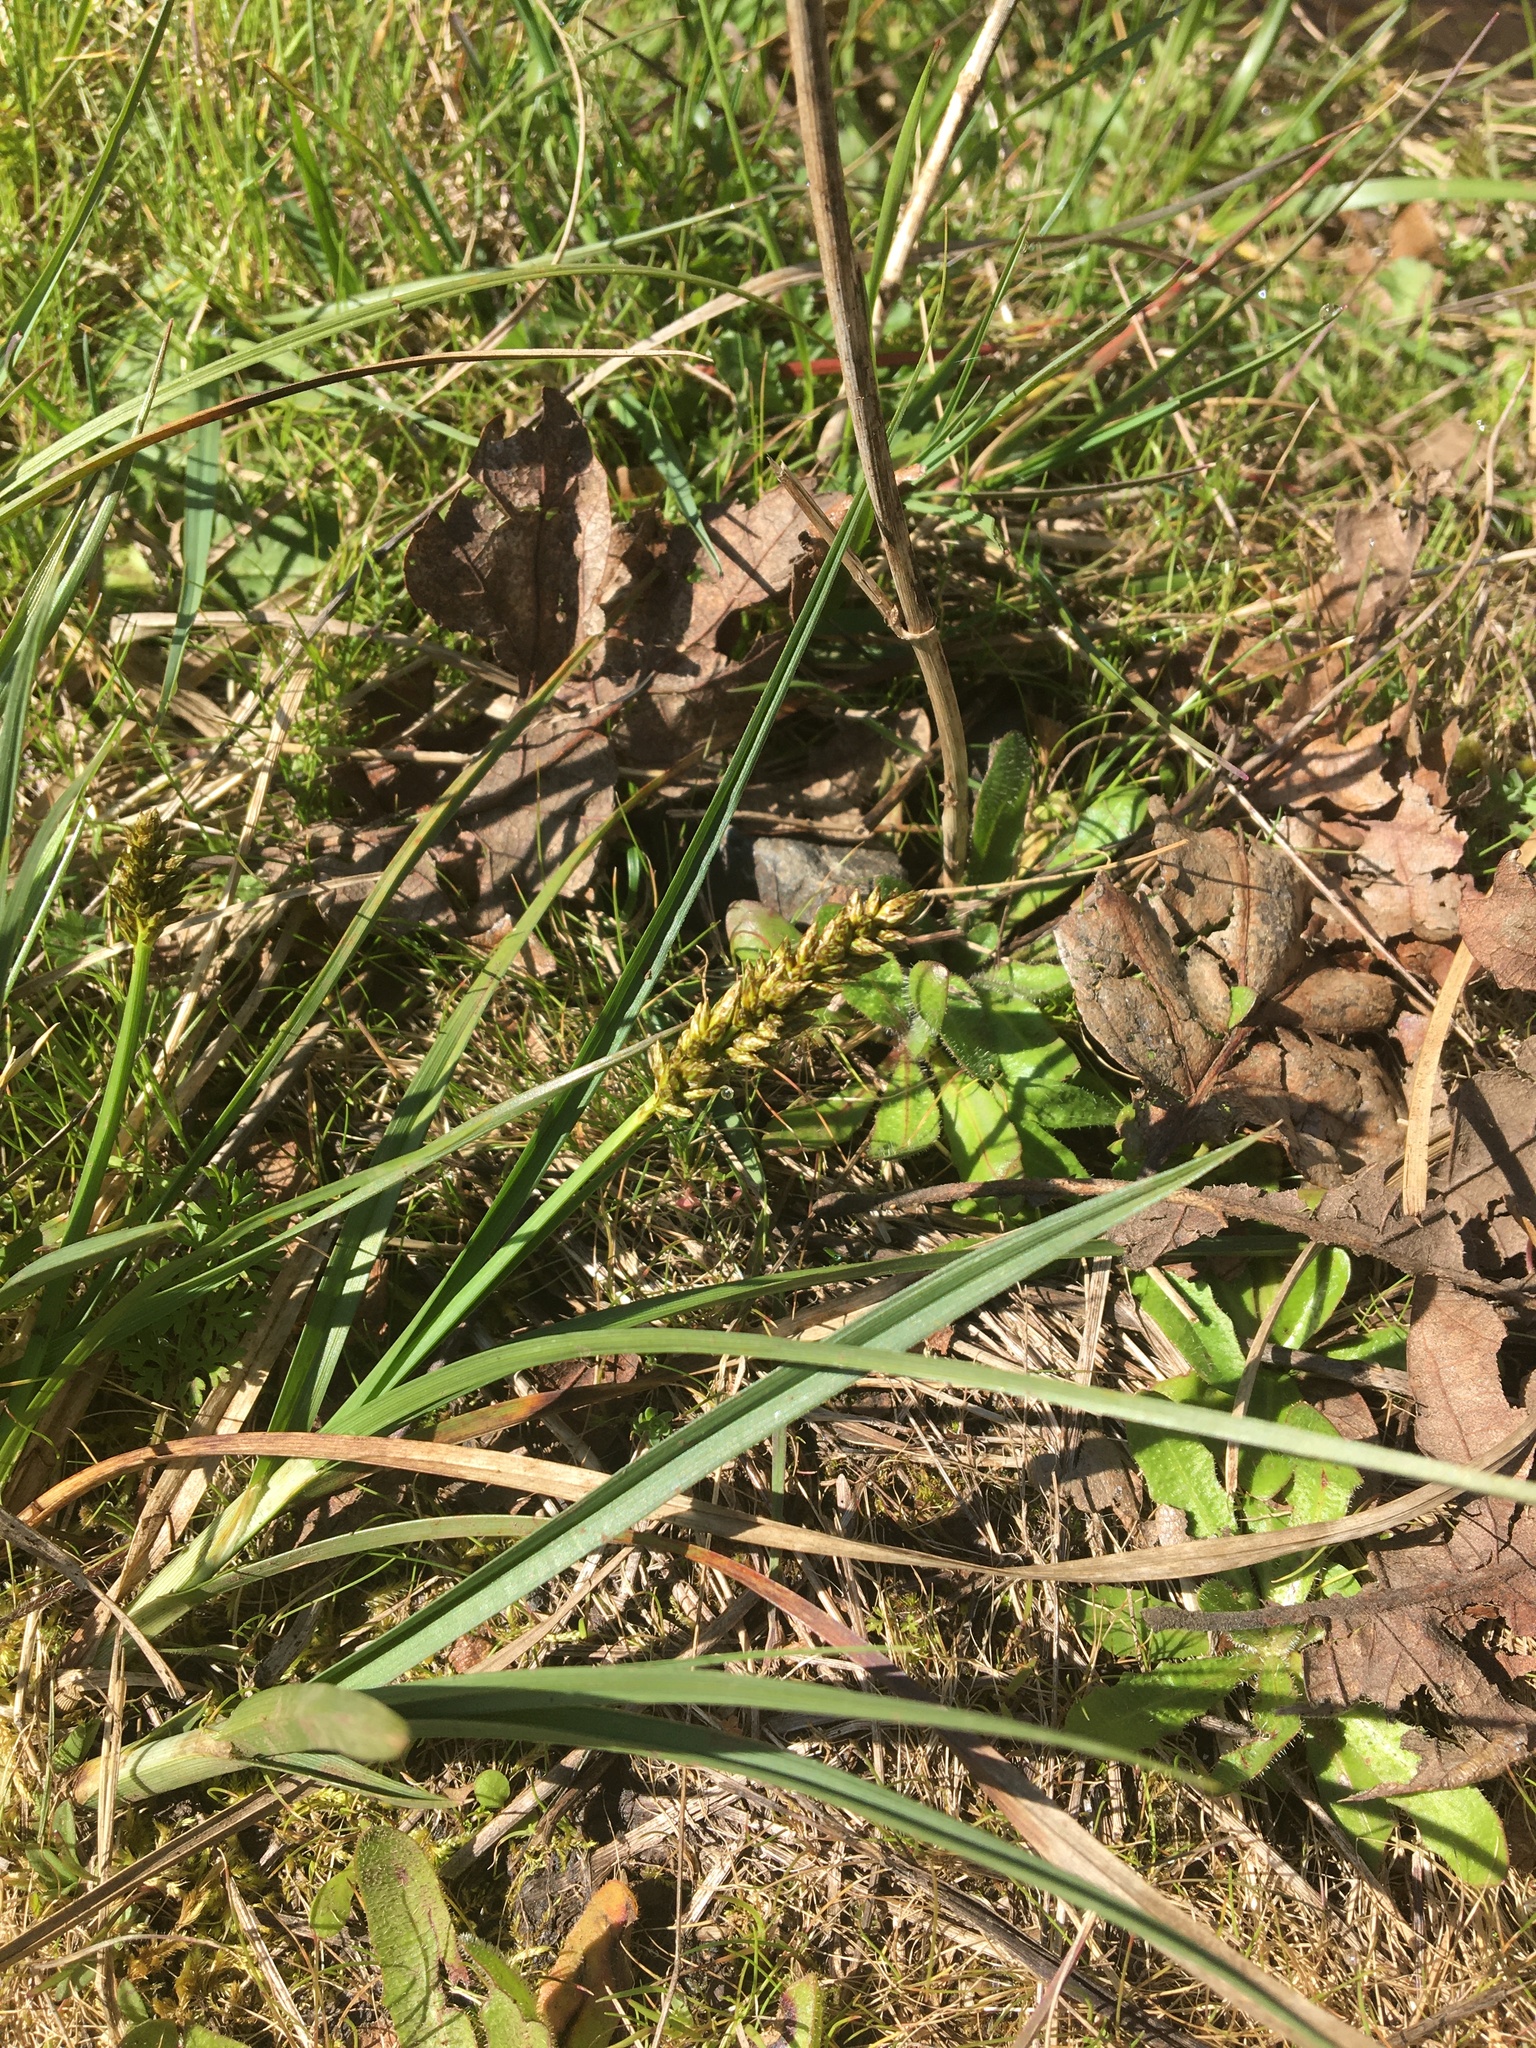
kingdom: Plantae
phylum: Tracheophyta
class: Liliopsida
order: Poales
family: Cyperaceae
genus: Carex
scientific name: Carex densa
